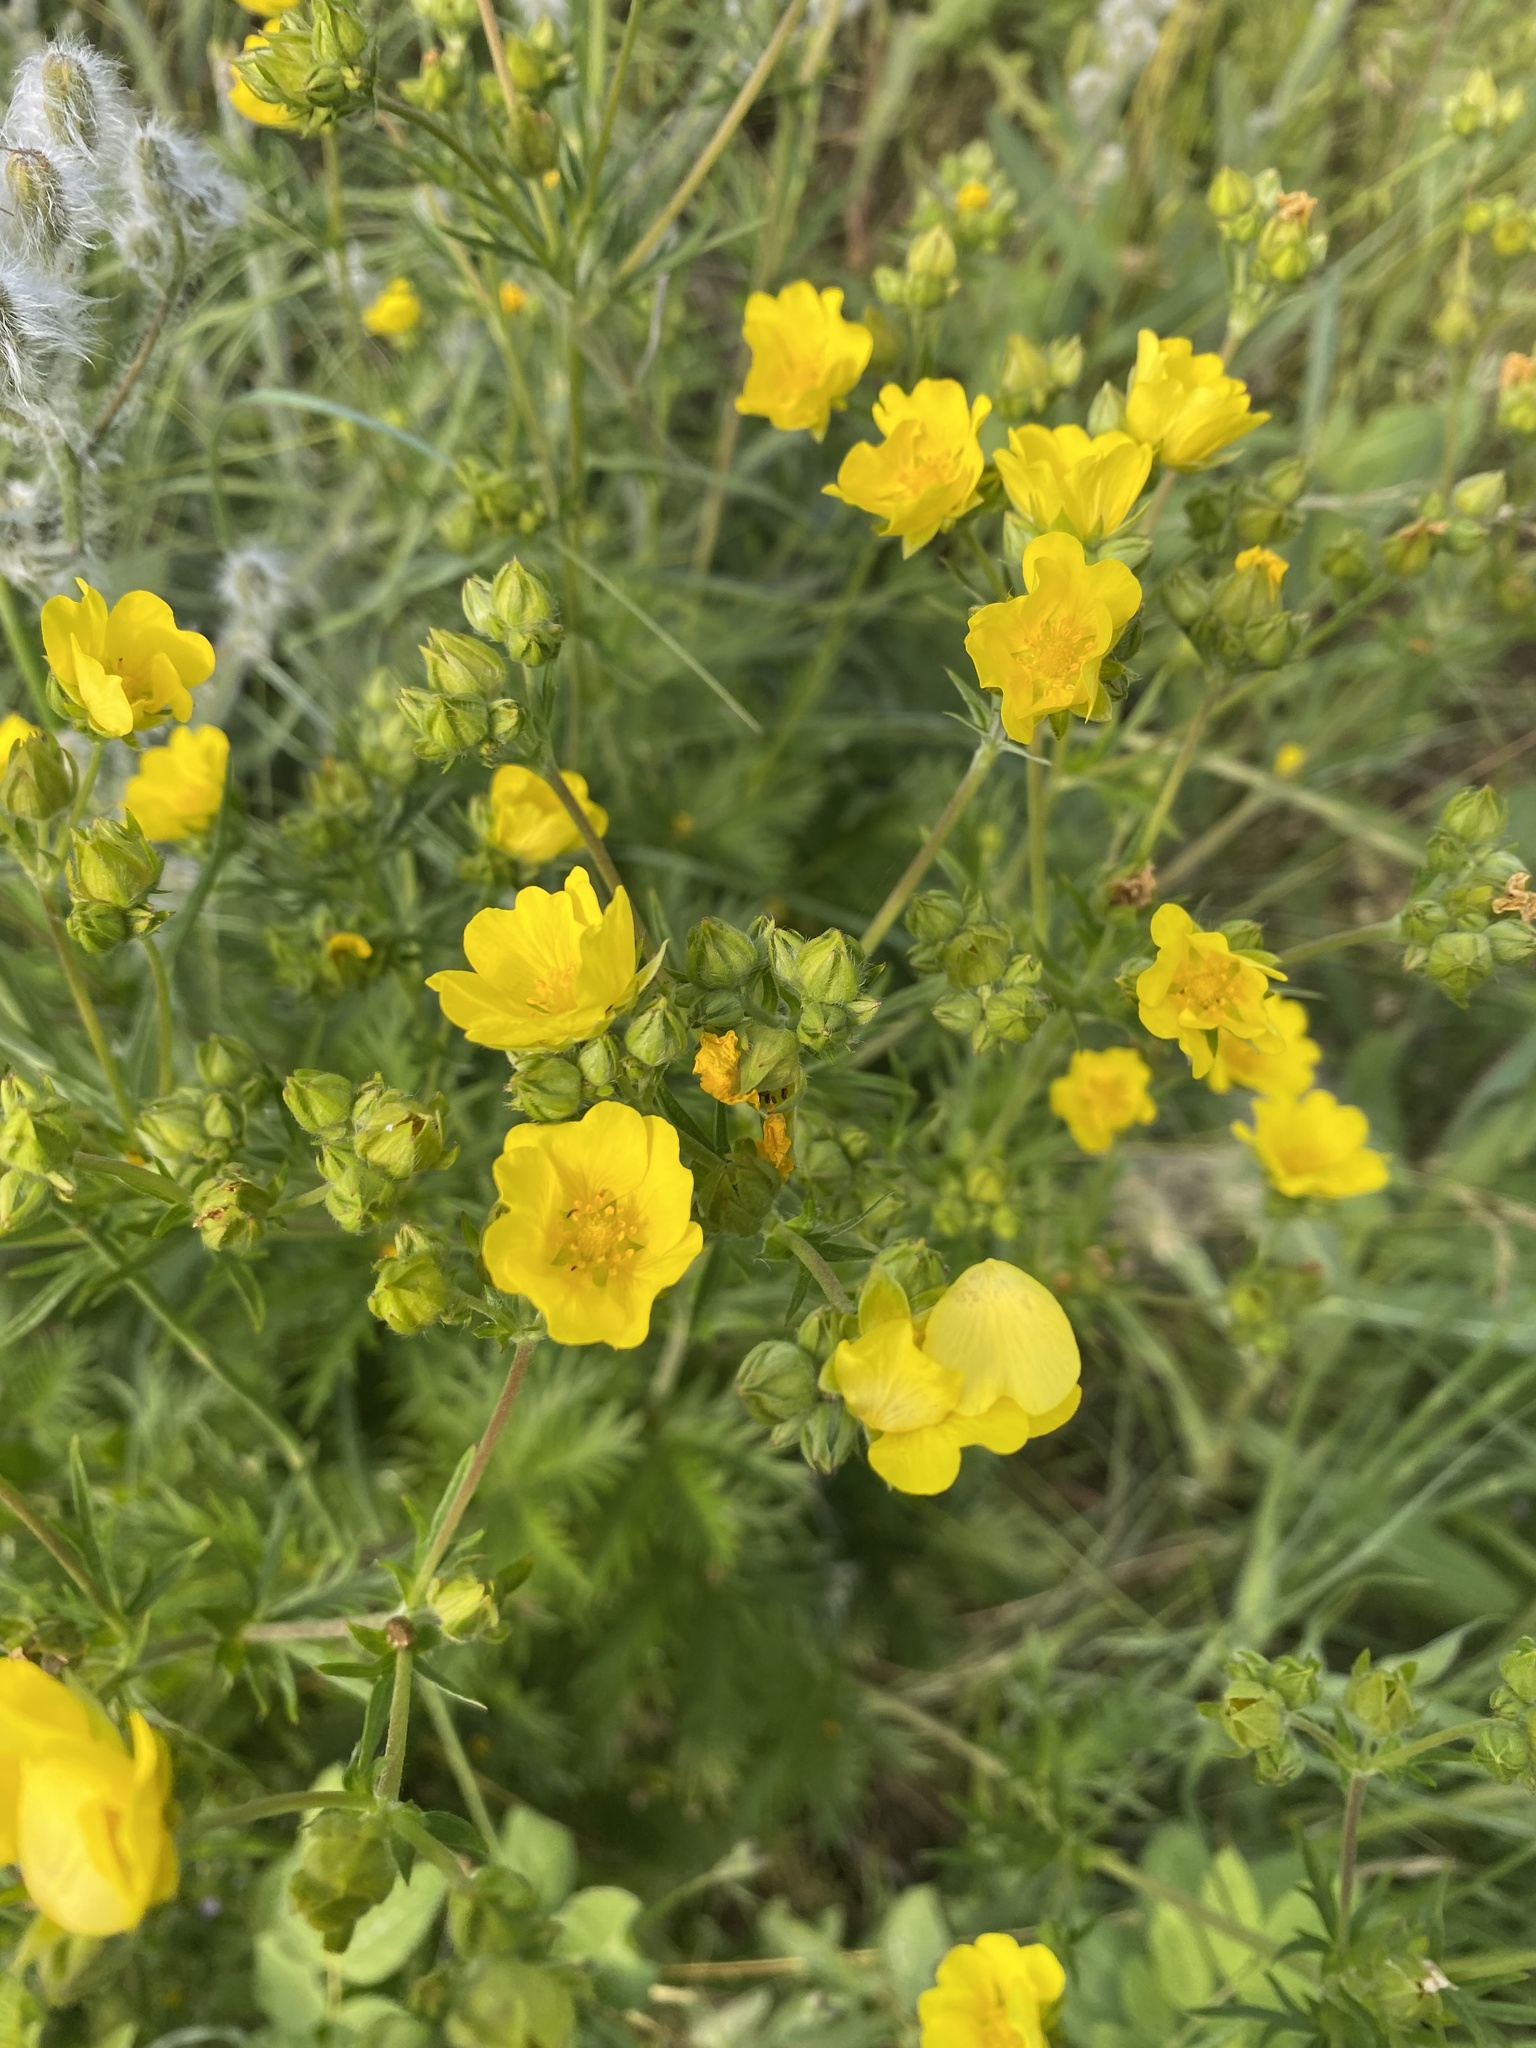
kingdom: Plantae
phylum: Tracheophyta
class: Magnoliopsida
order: Rosales
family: Rosaceae
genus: Potentilla
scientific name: Potentilla gracilis
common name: Graceful cinquefoil
